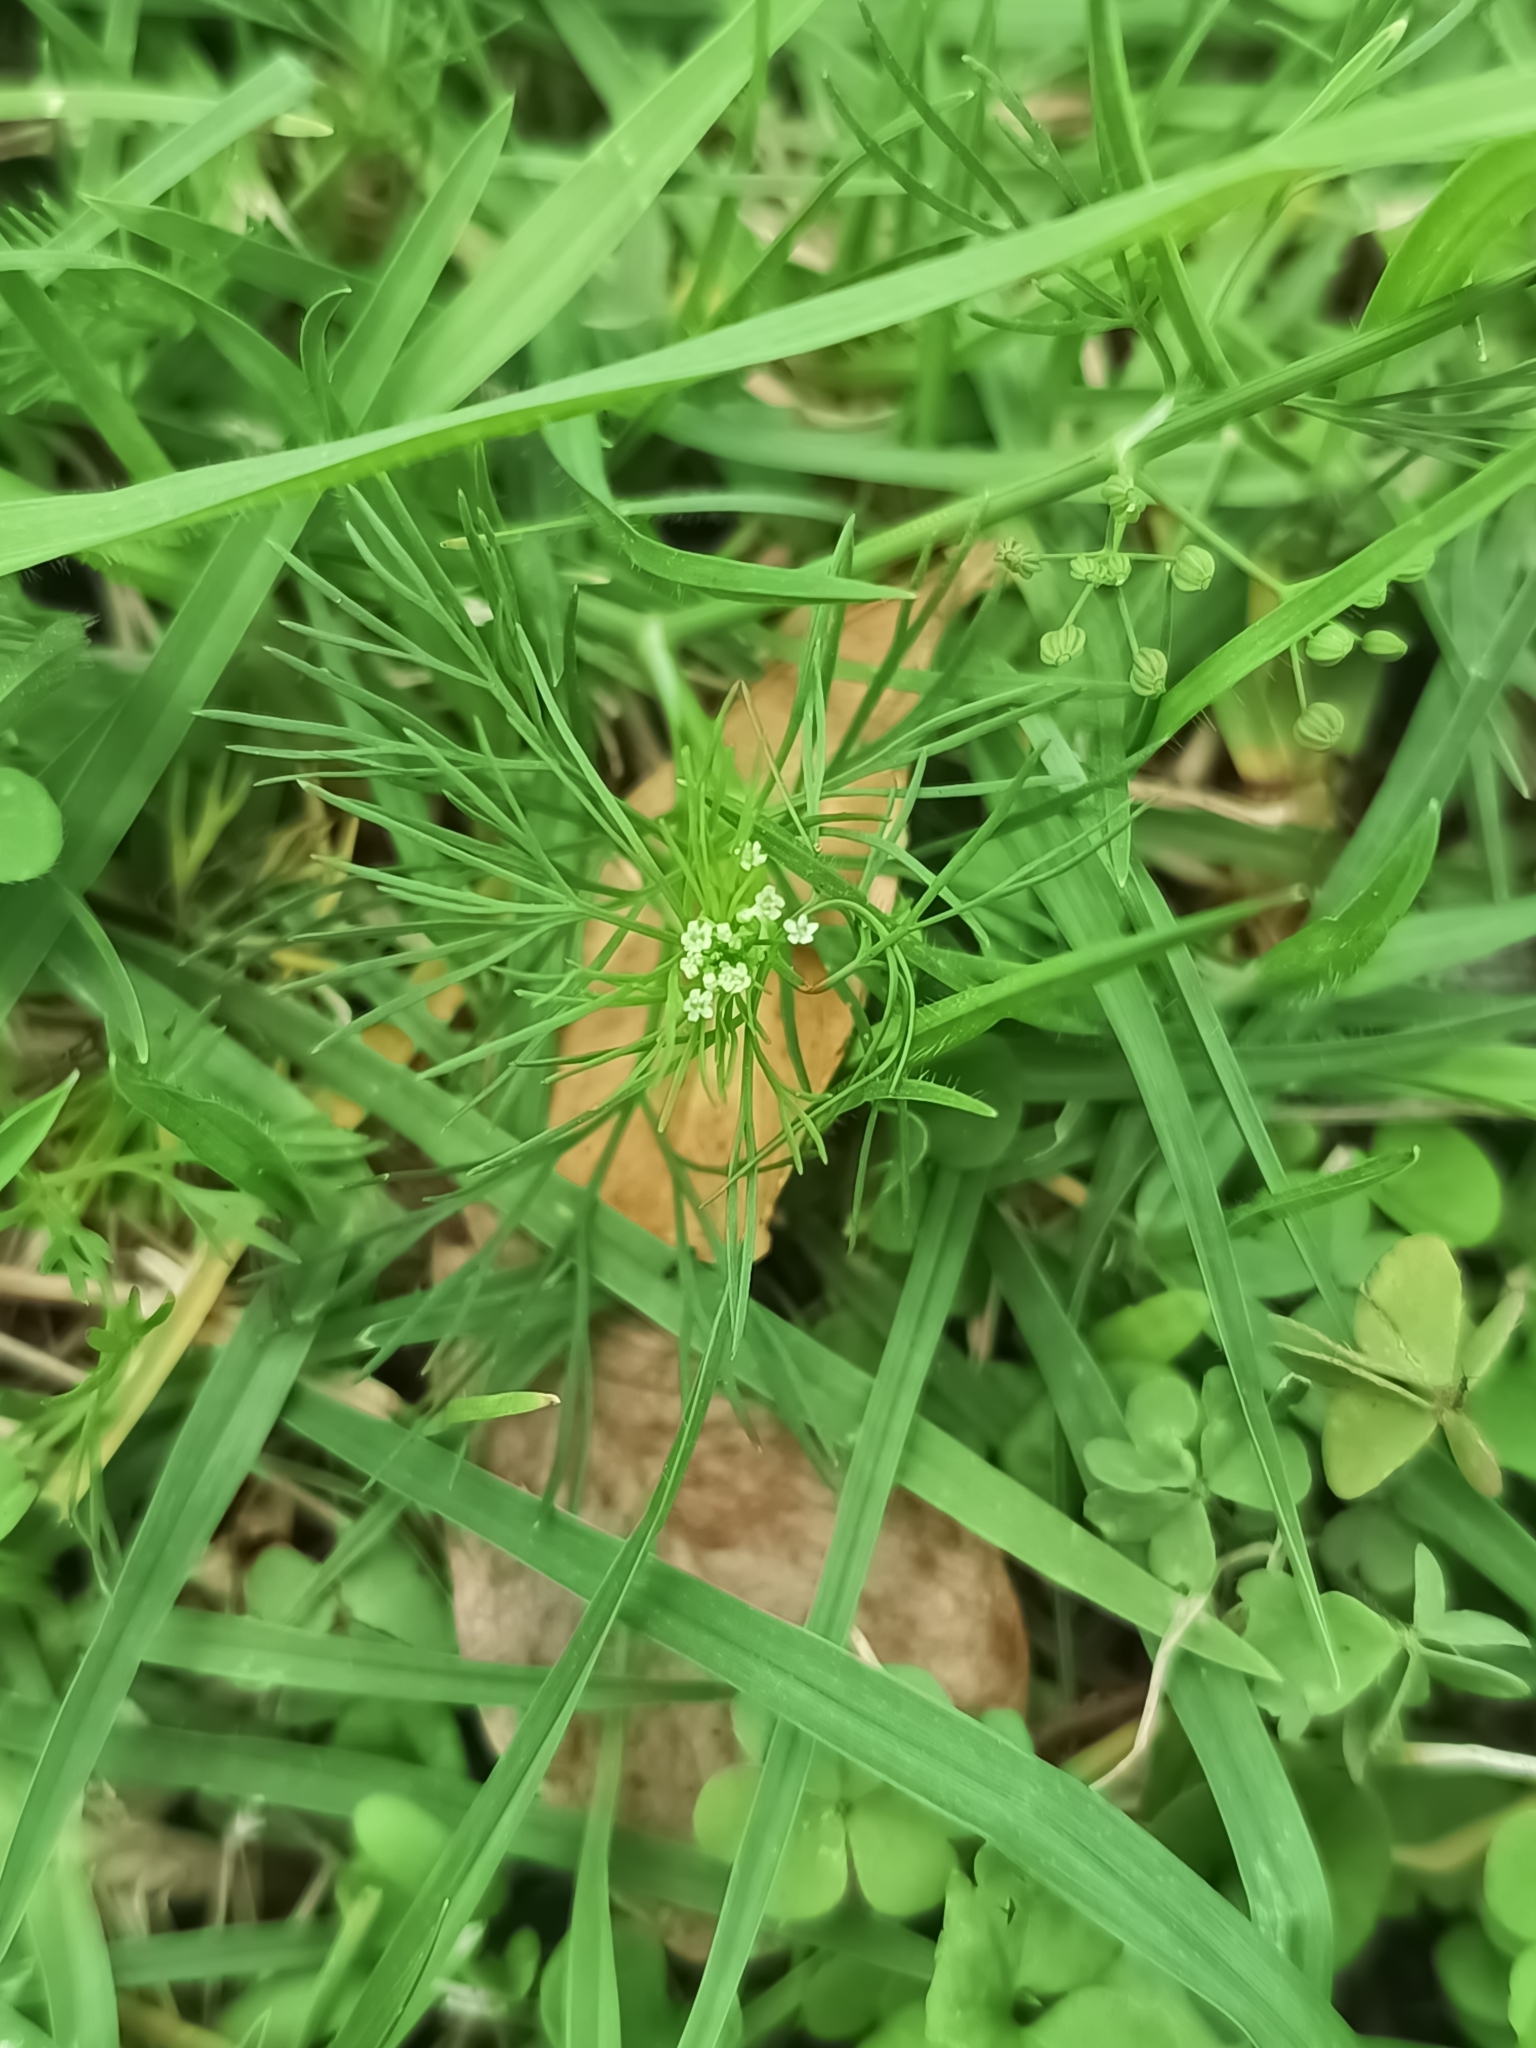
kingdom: Plantae
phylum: Tracheophyta
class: Magnoliopsida
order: Apiales
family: Apiaceae
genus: Cyclospermum
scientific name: Cyclospermum leptophyllum
